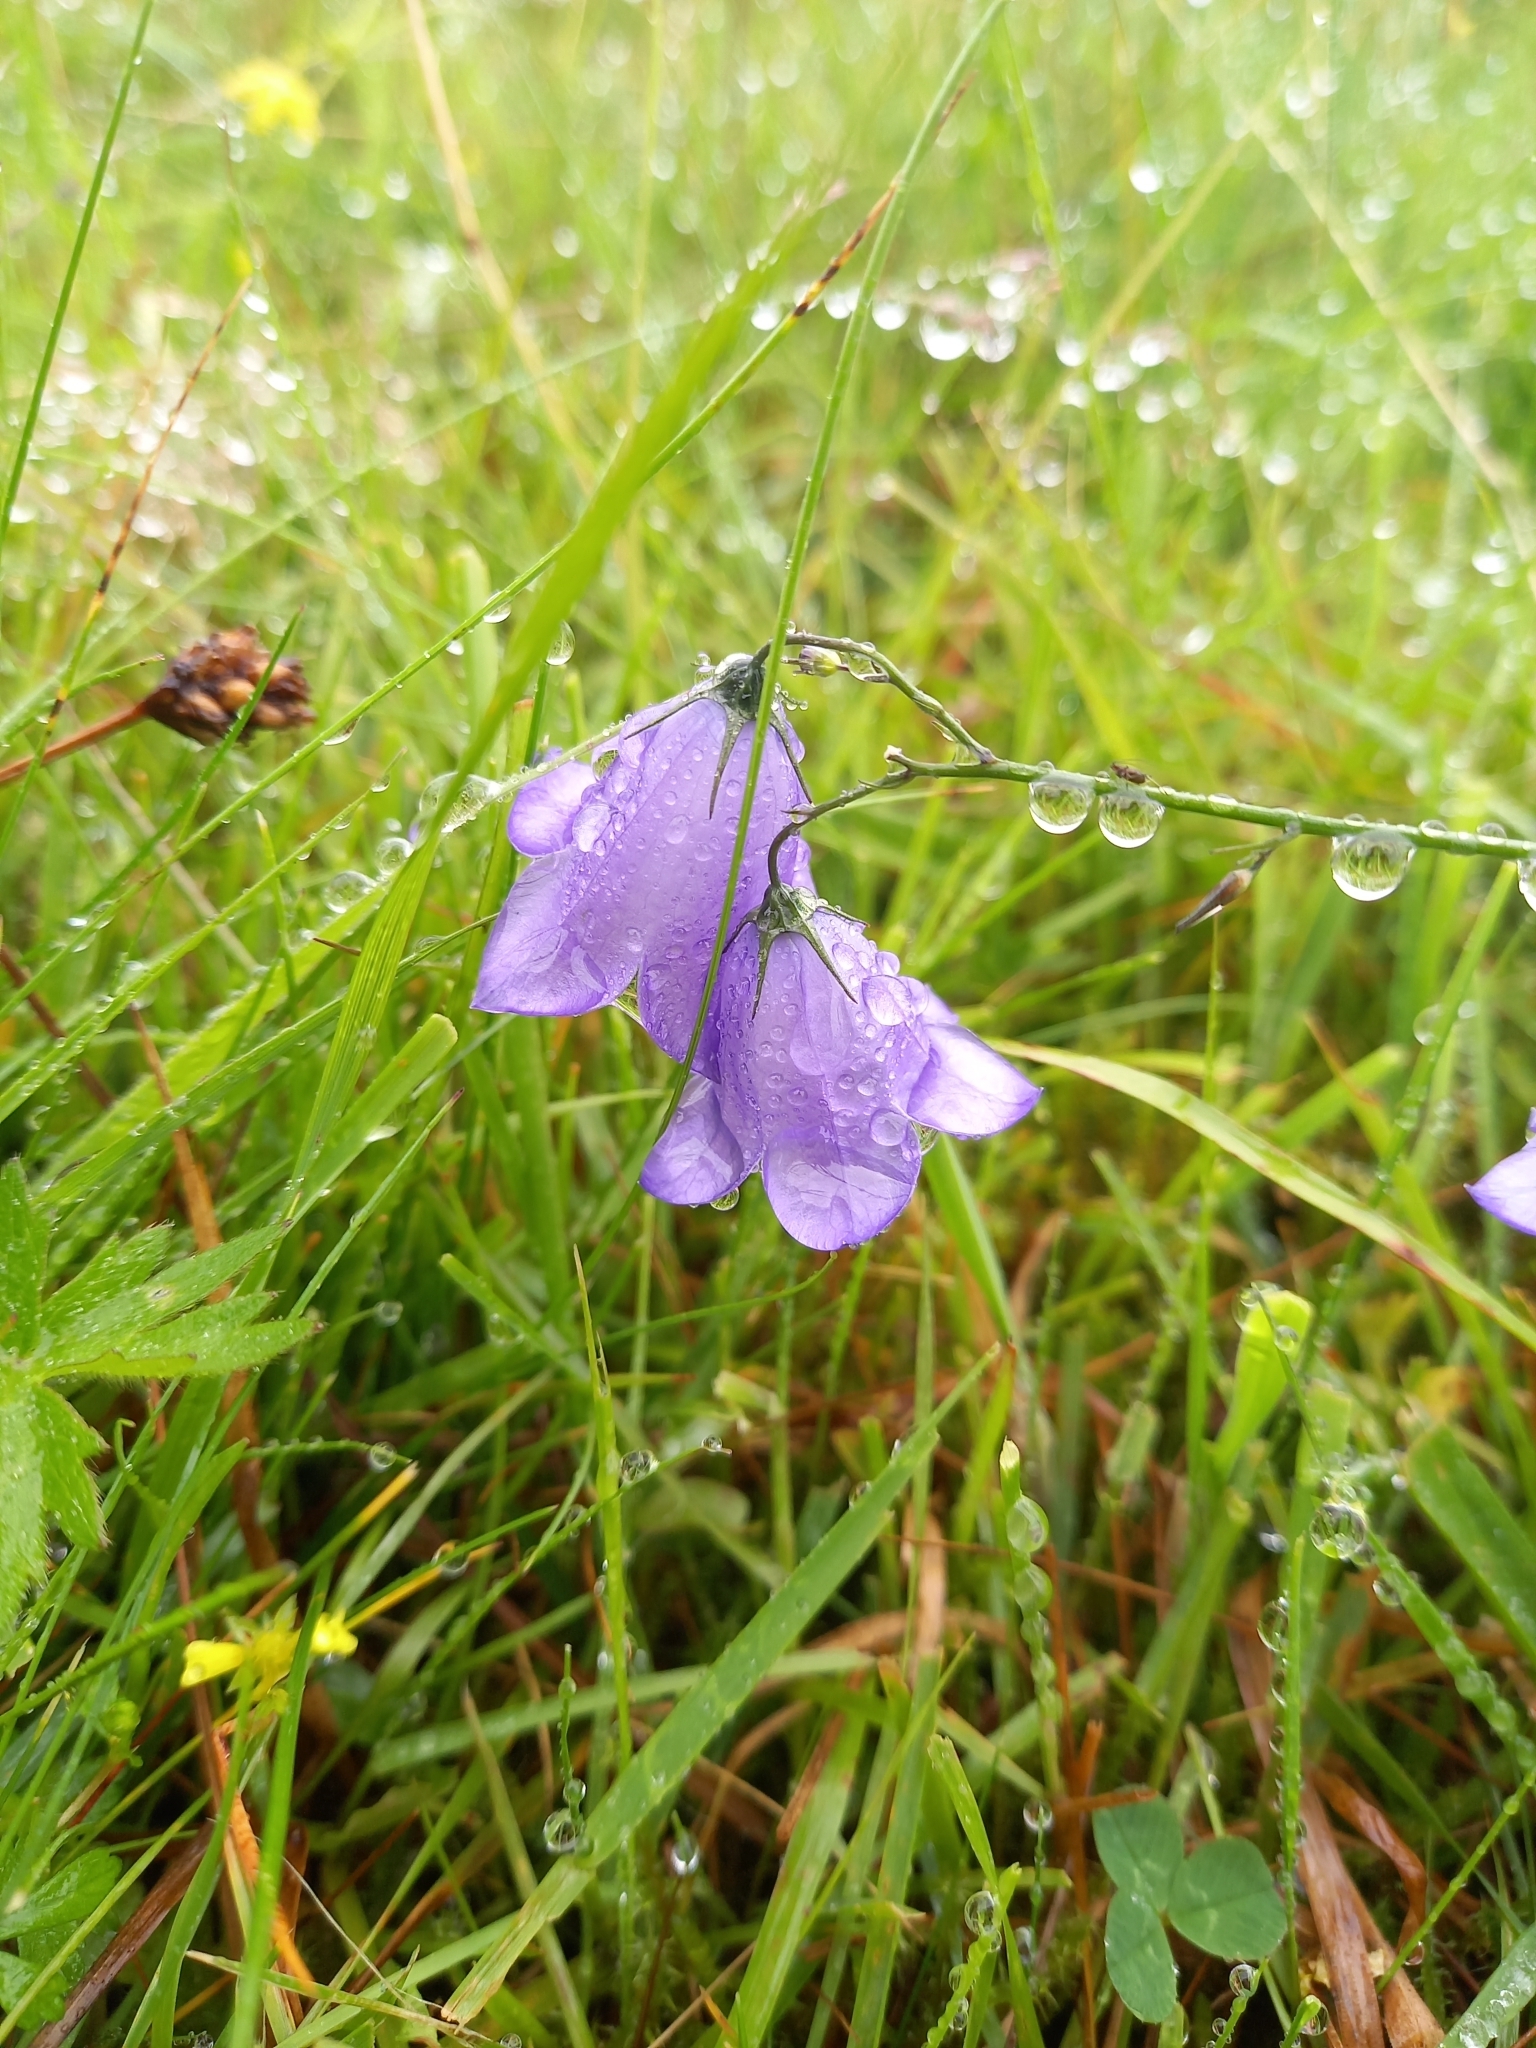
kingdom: Plantae
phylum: Tracheophyta
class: Magnoliopsida
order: Asterales
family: Campanulaceae
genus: Campanula
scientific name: Campanula rotundifolia
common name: Harebell
